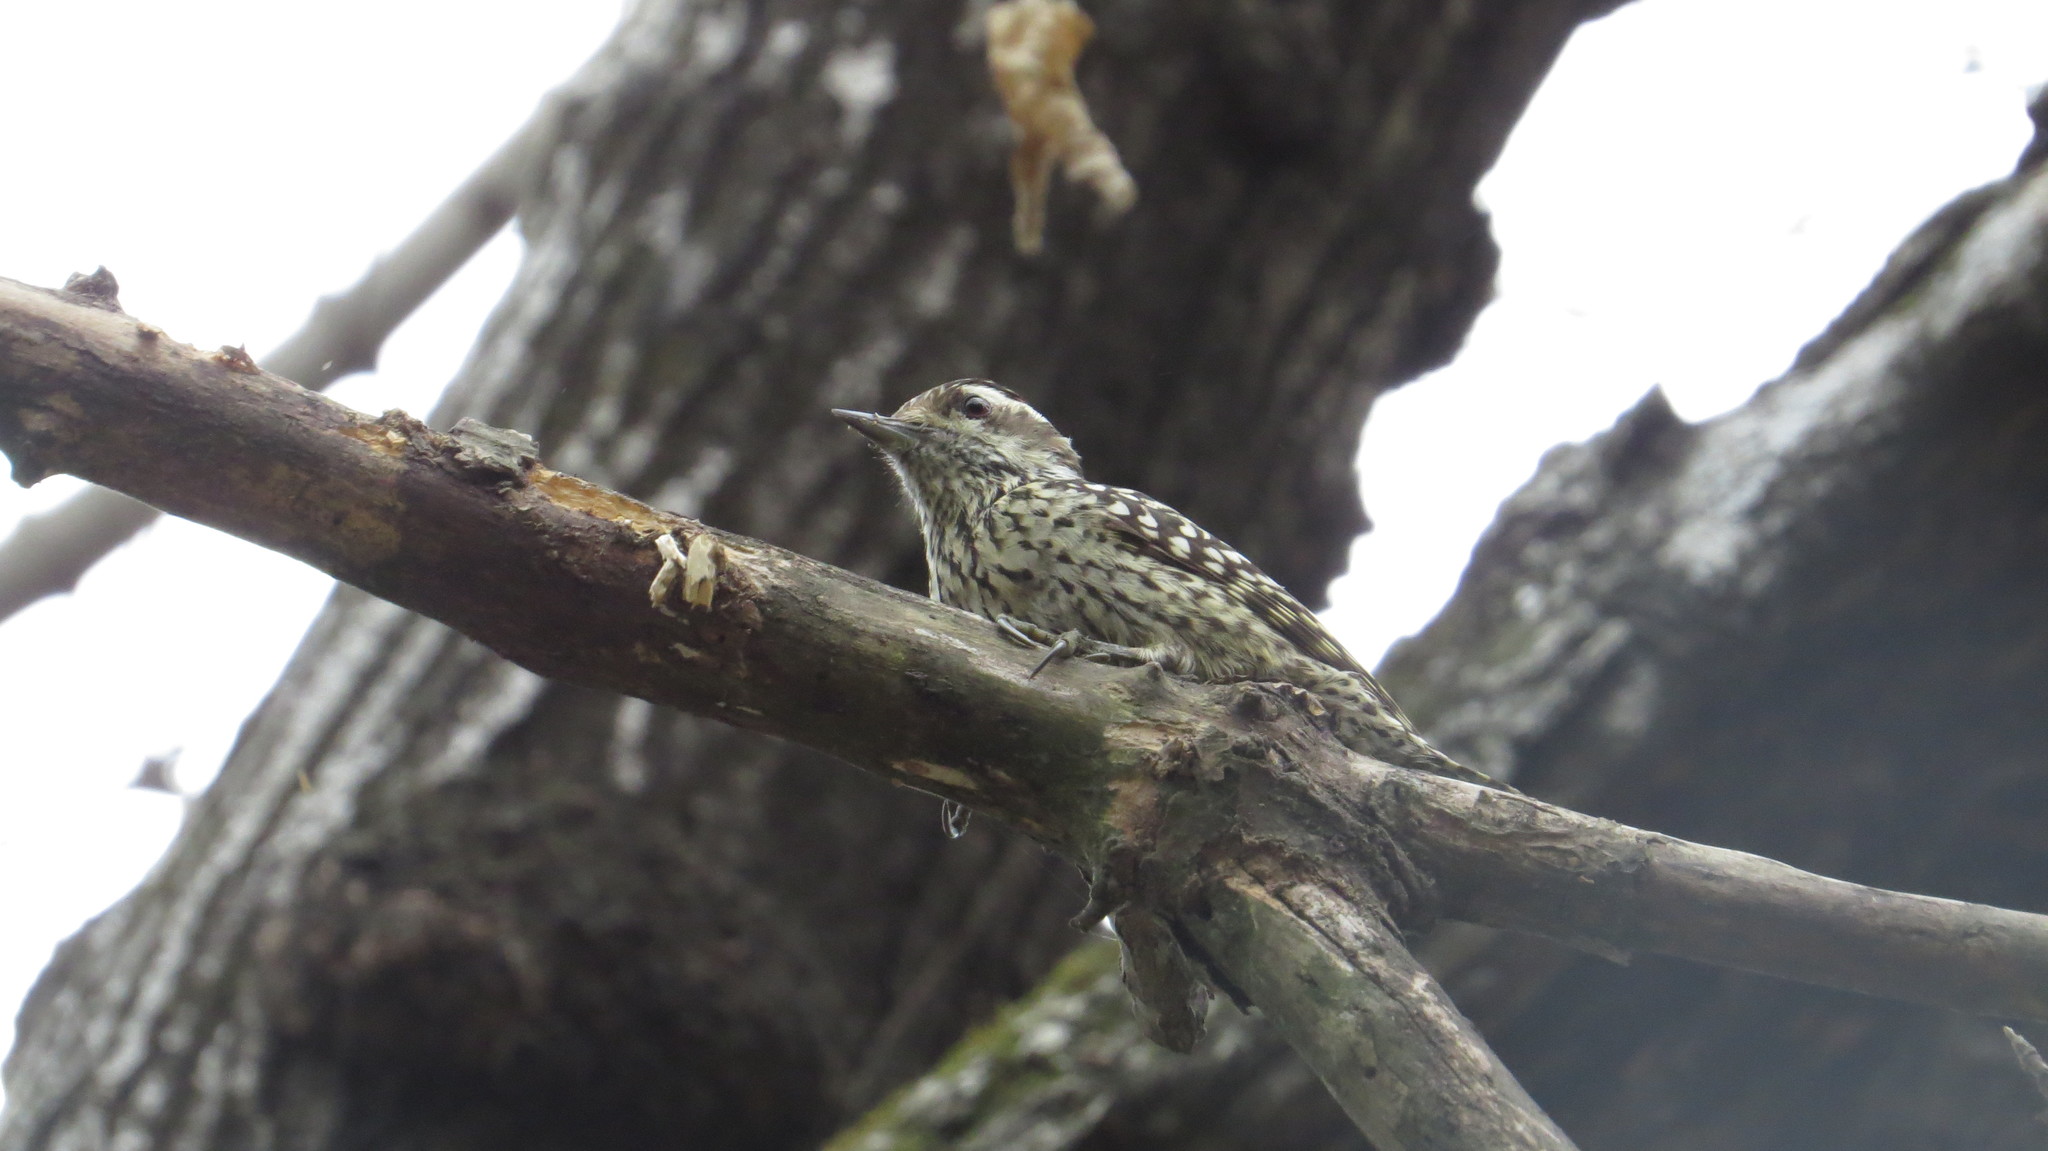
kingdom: Animalia
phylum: Chordata
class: Aves
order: Piciformes
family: Picidae
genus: Veniliornis
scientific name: Veniliornis mixtus
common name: Checkered woodpecker
